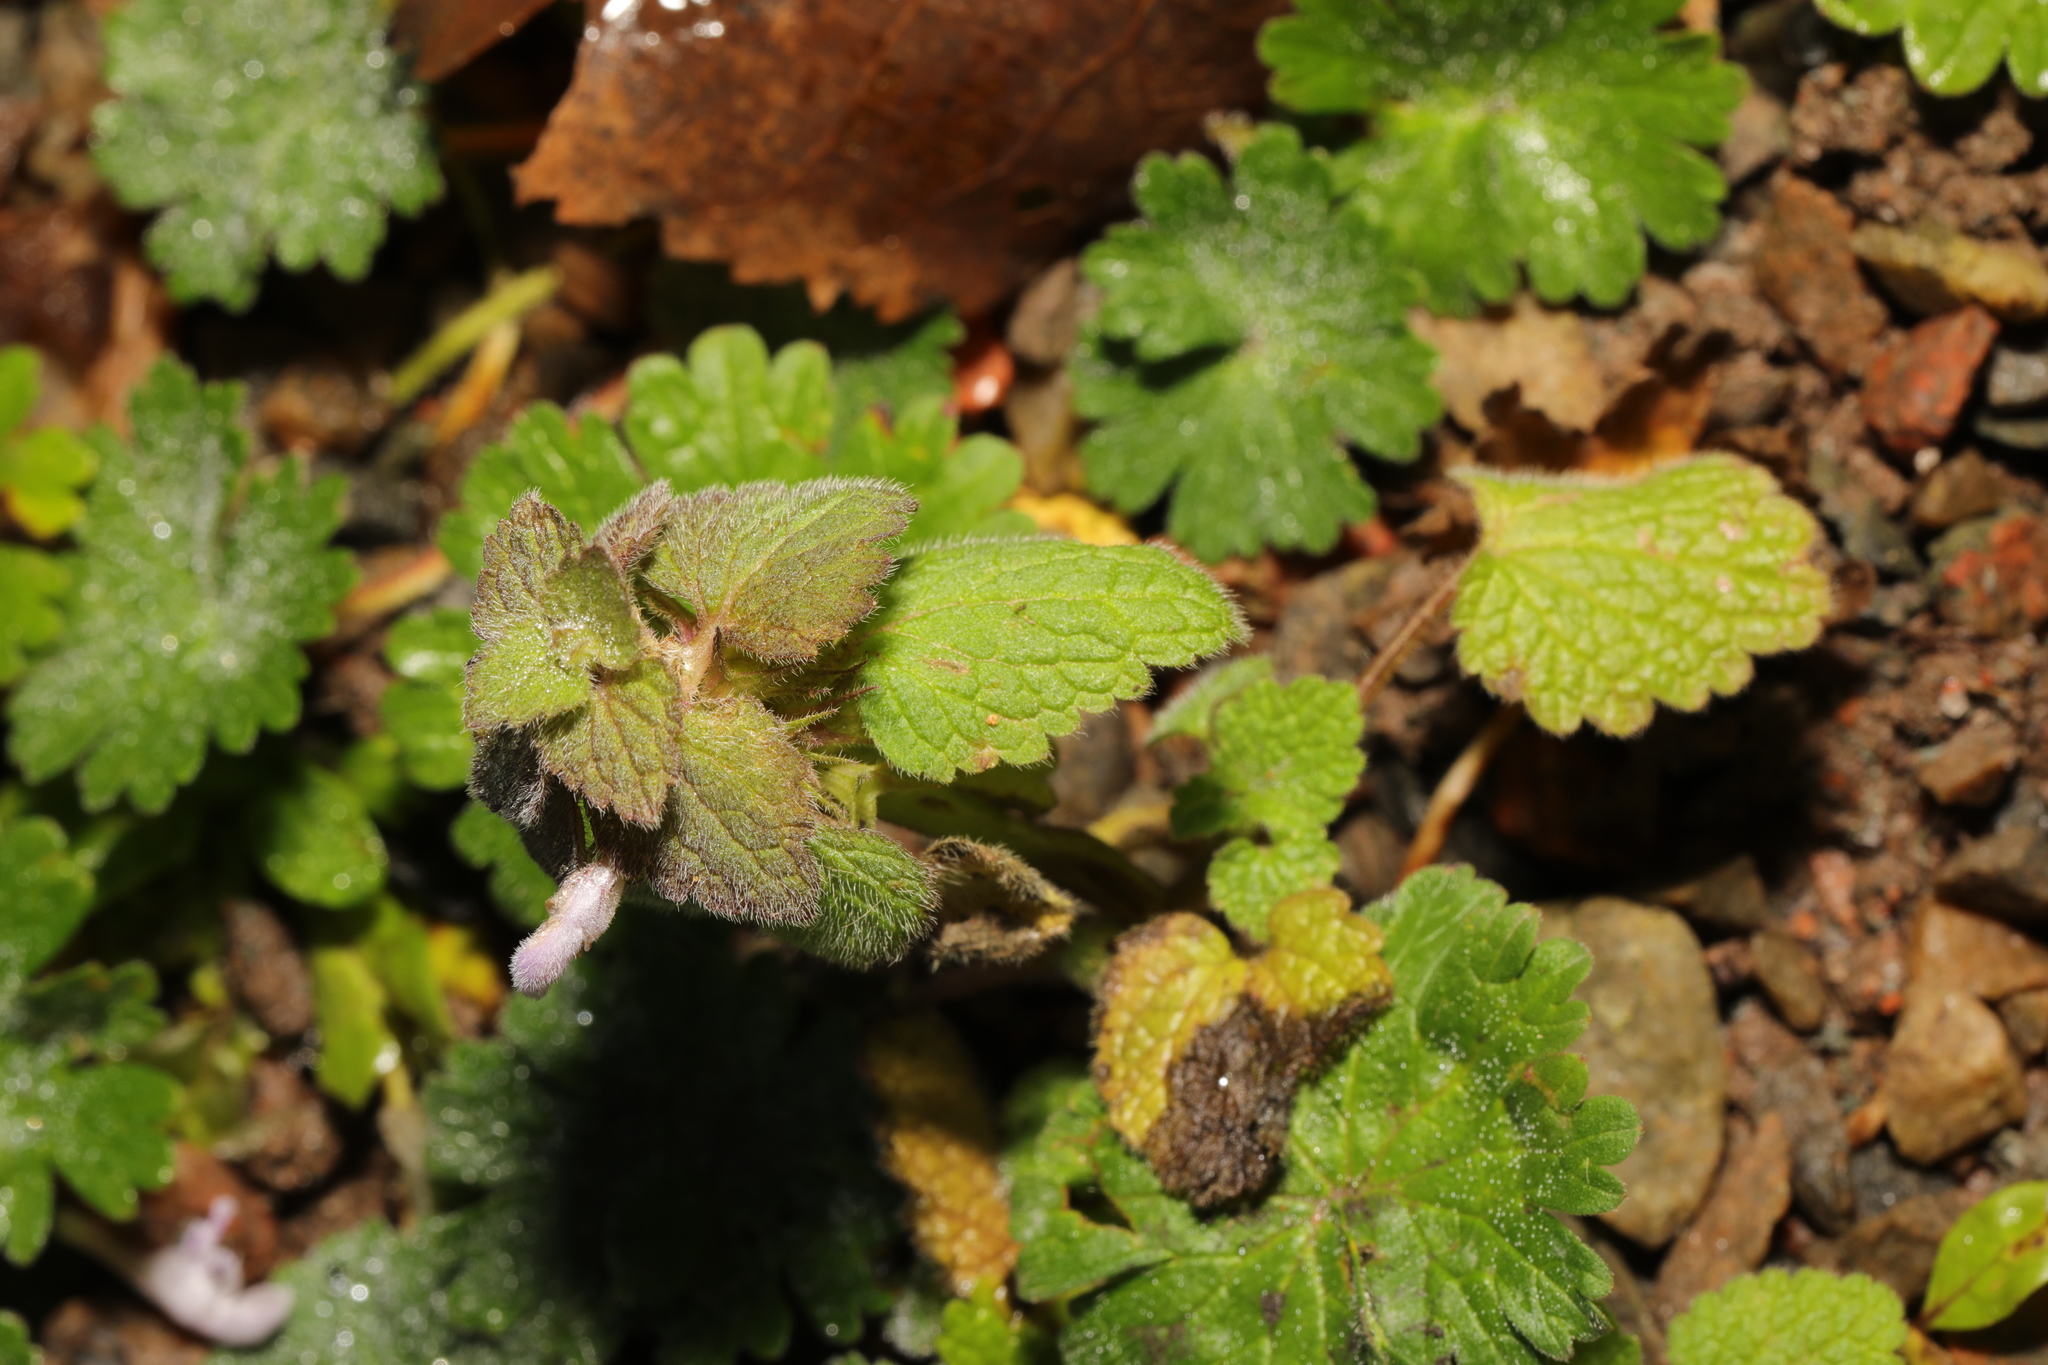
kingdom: Plantae
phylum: Tracheophyta
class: Magnoliopsida
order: Lamiales
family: Lamiaceae
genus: Lamium
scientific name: Lamium purpureum
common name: Red dead-nettle
